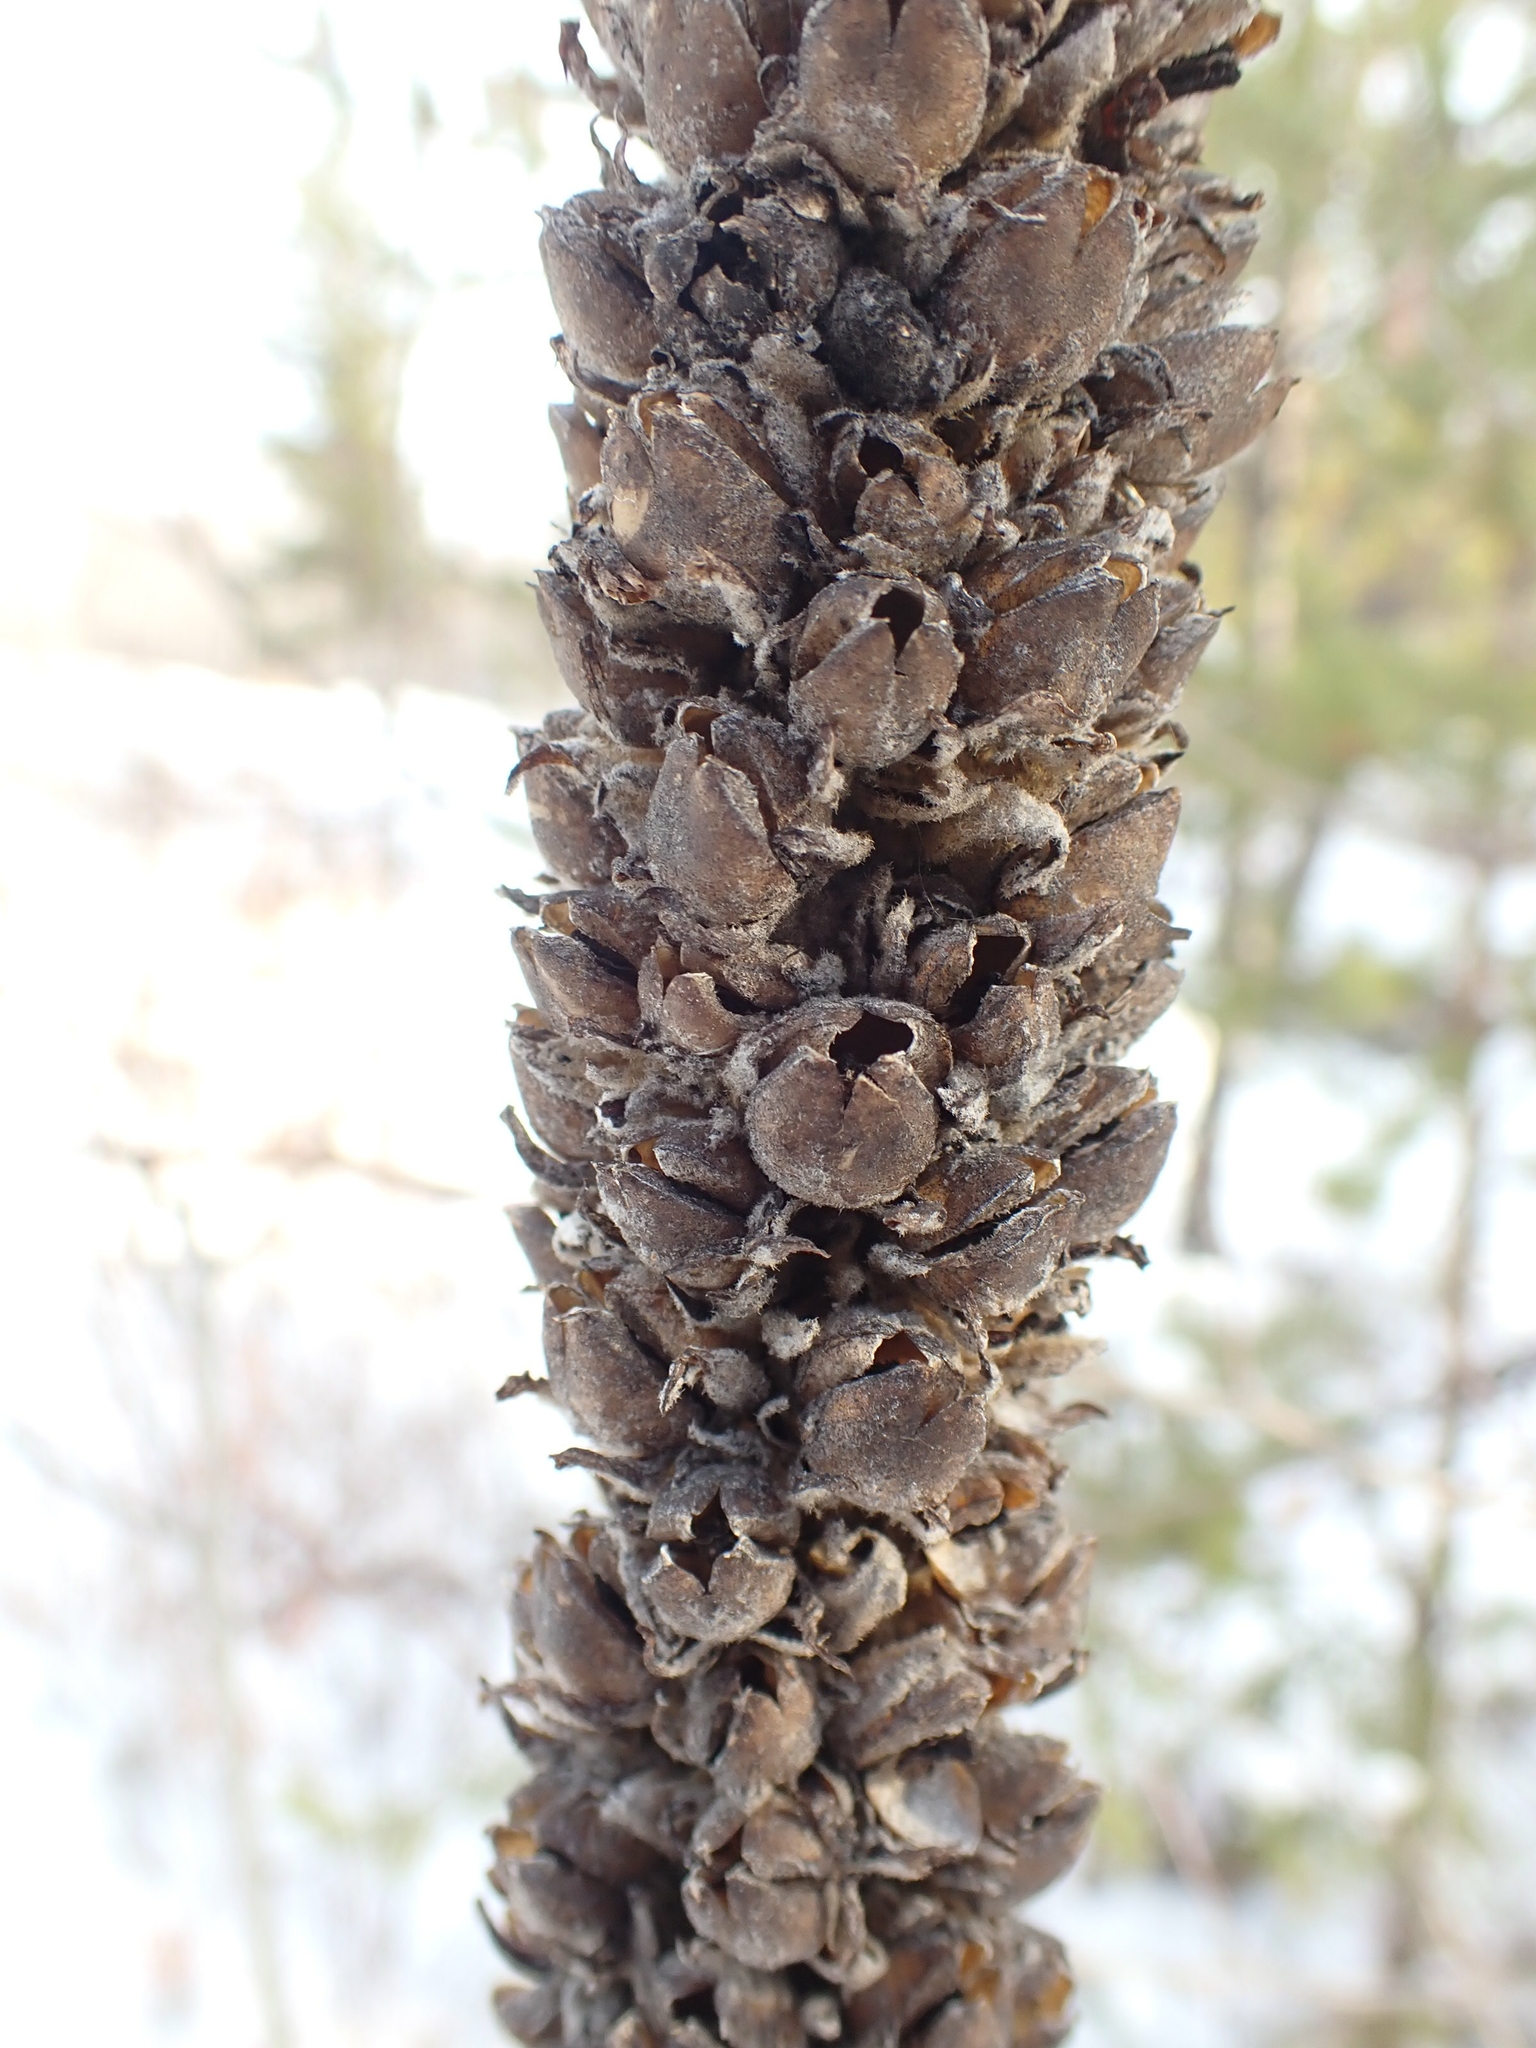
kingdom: Plantae
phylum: Tracheophyta
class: Magnoliopsida
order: Lamiales
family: Scrophulariaceae
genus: Verbascum
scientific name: Verbascum thapsus
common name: Common mullein
